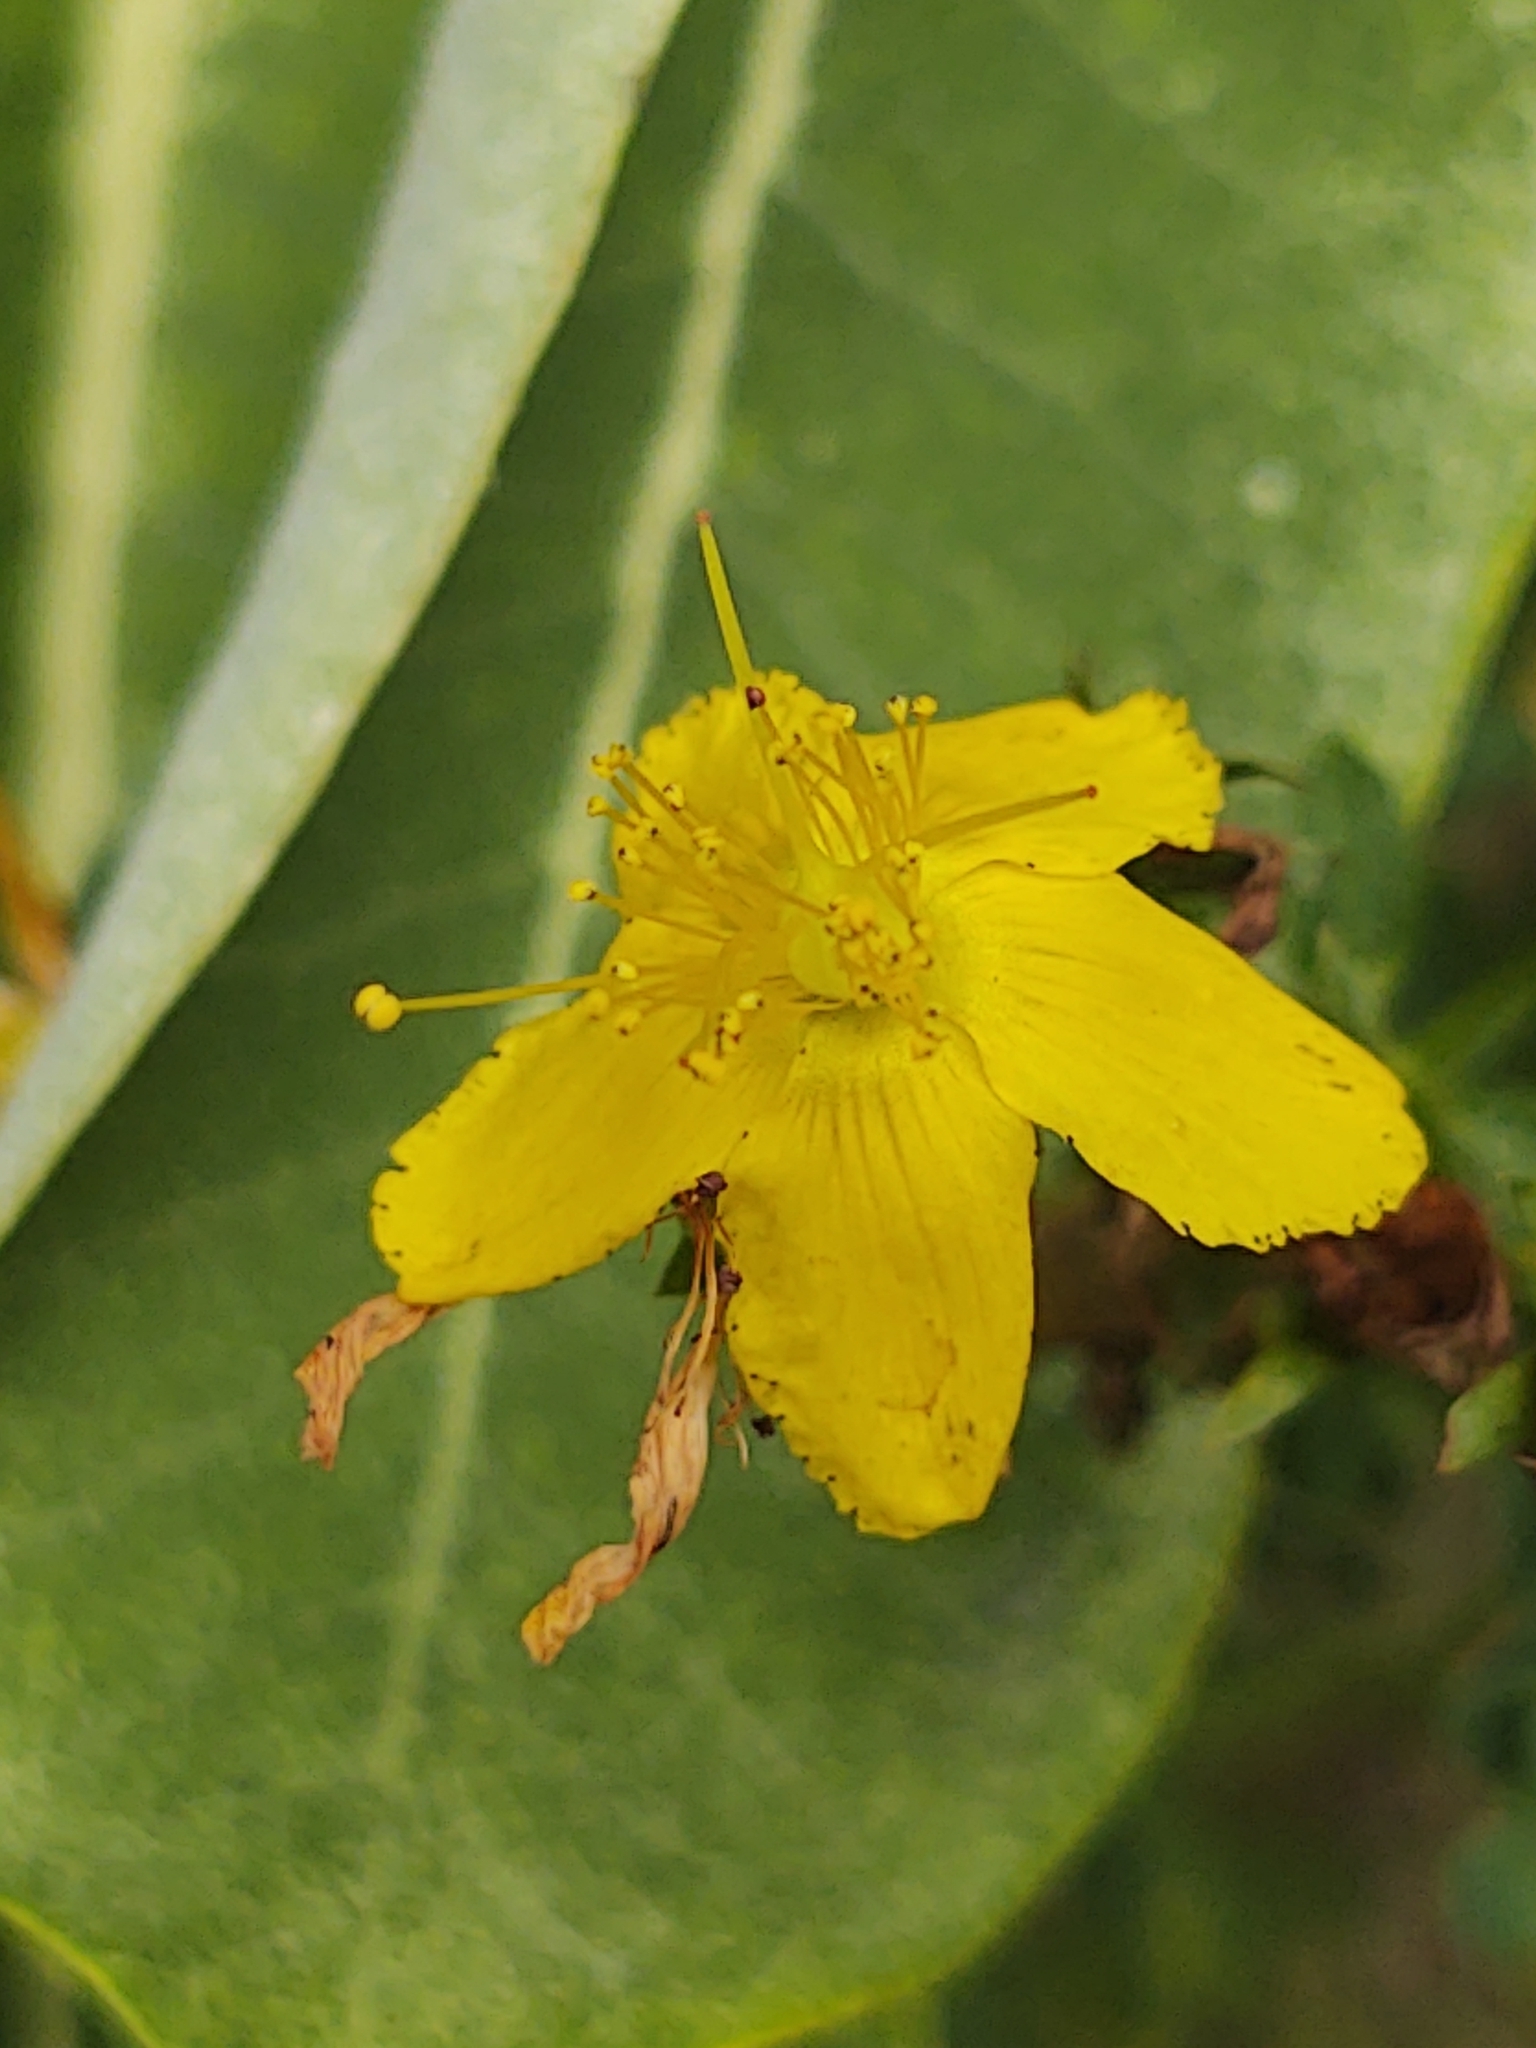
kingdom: Plantae
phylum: Tracheophyta
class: Magnoliopsida
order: Malpighiales
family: Hypericaceae
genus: Hypericum
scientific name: Hypericum perforatum
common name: Common st. johnswort
